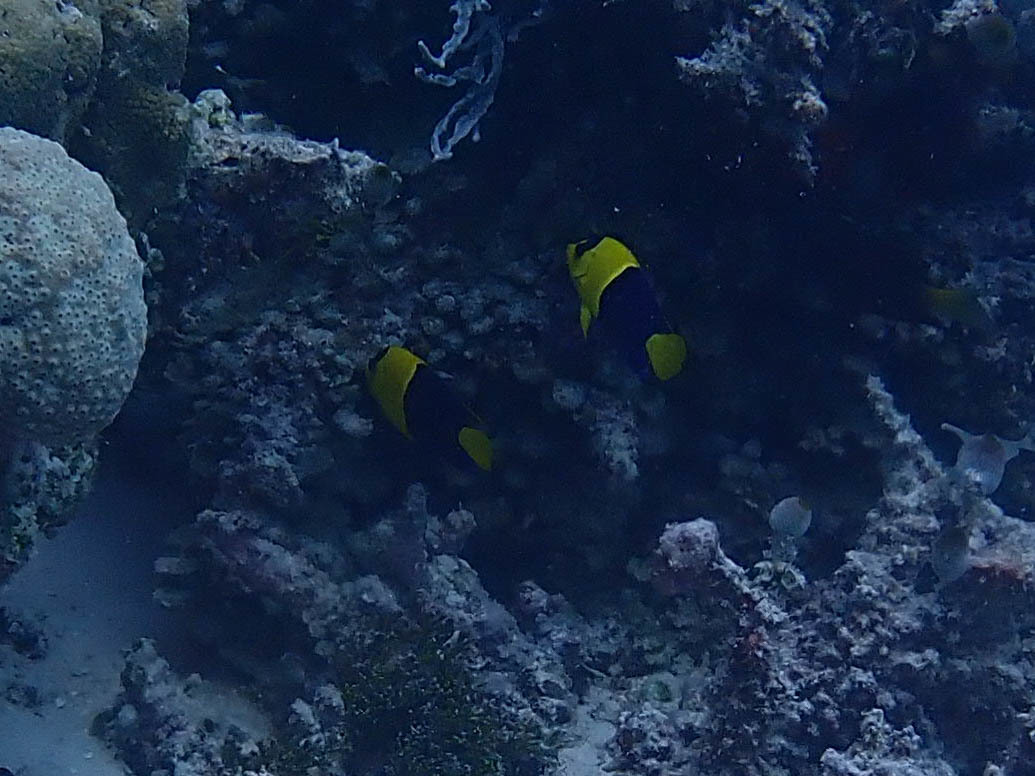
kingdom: Animalia
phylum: Chordata
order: Perciformes
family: Pomacanthidae
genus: Centropyge
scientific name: Centropyge bicolor
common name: Bicolor angelfish
